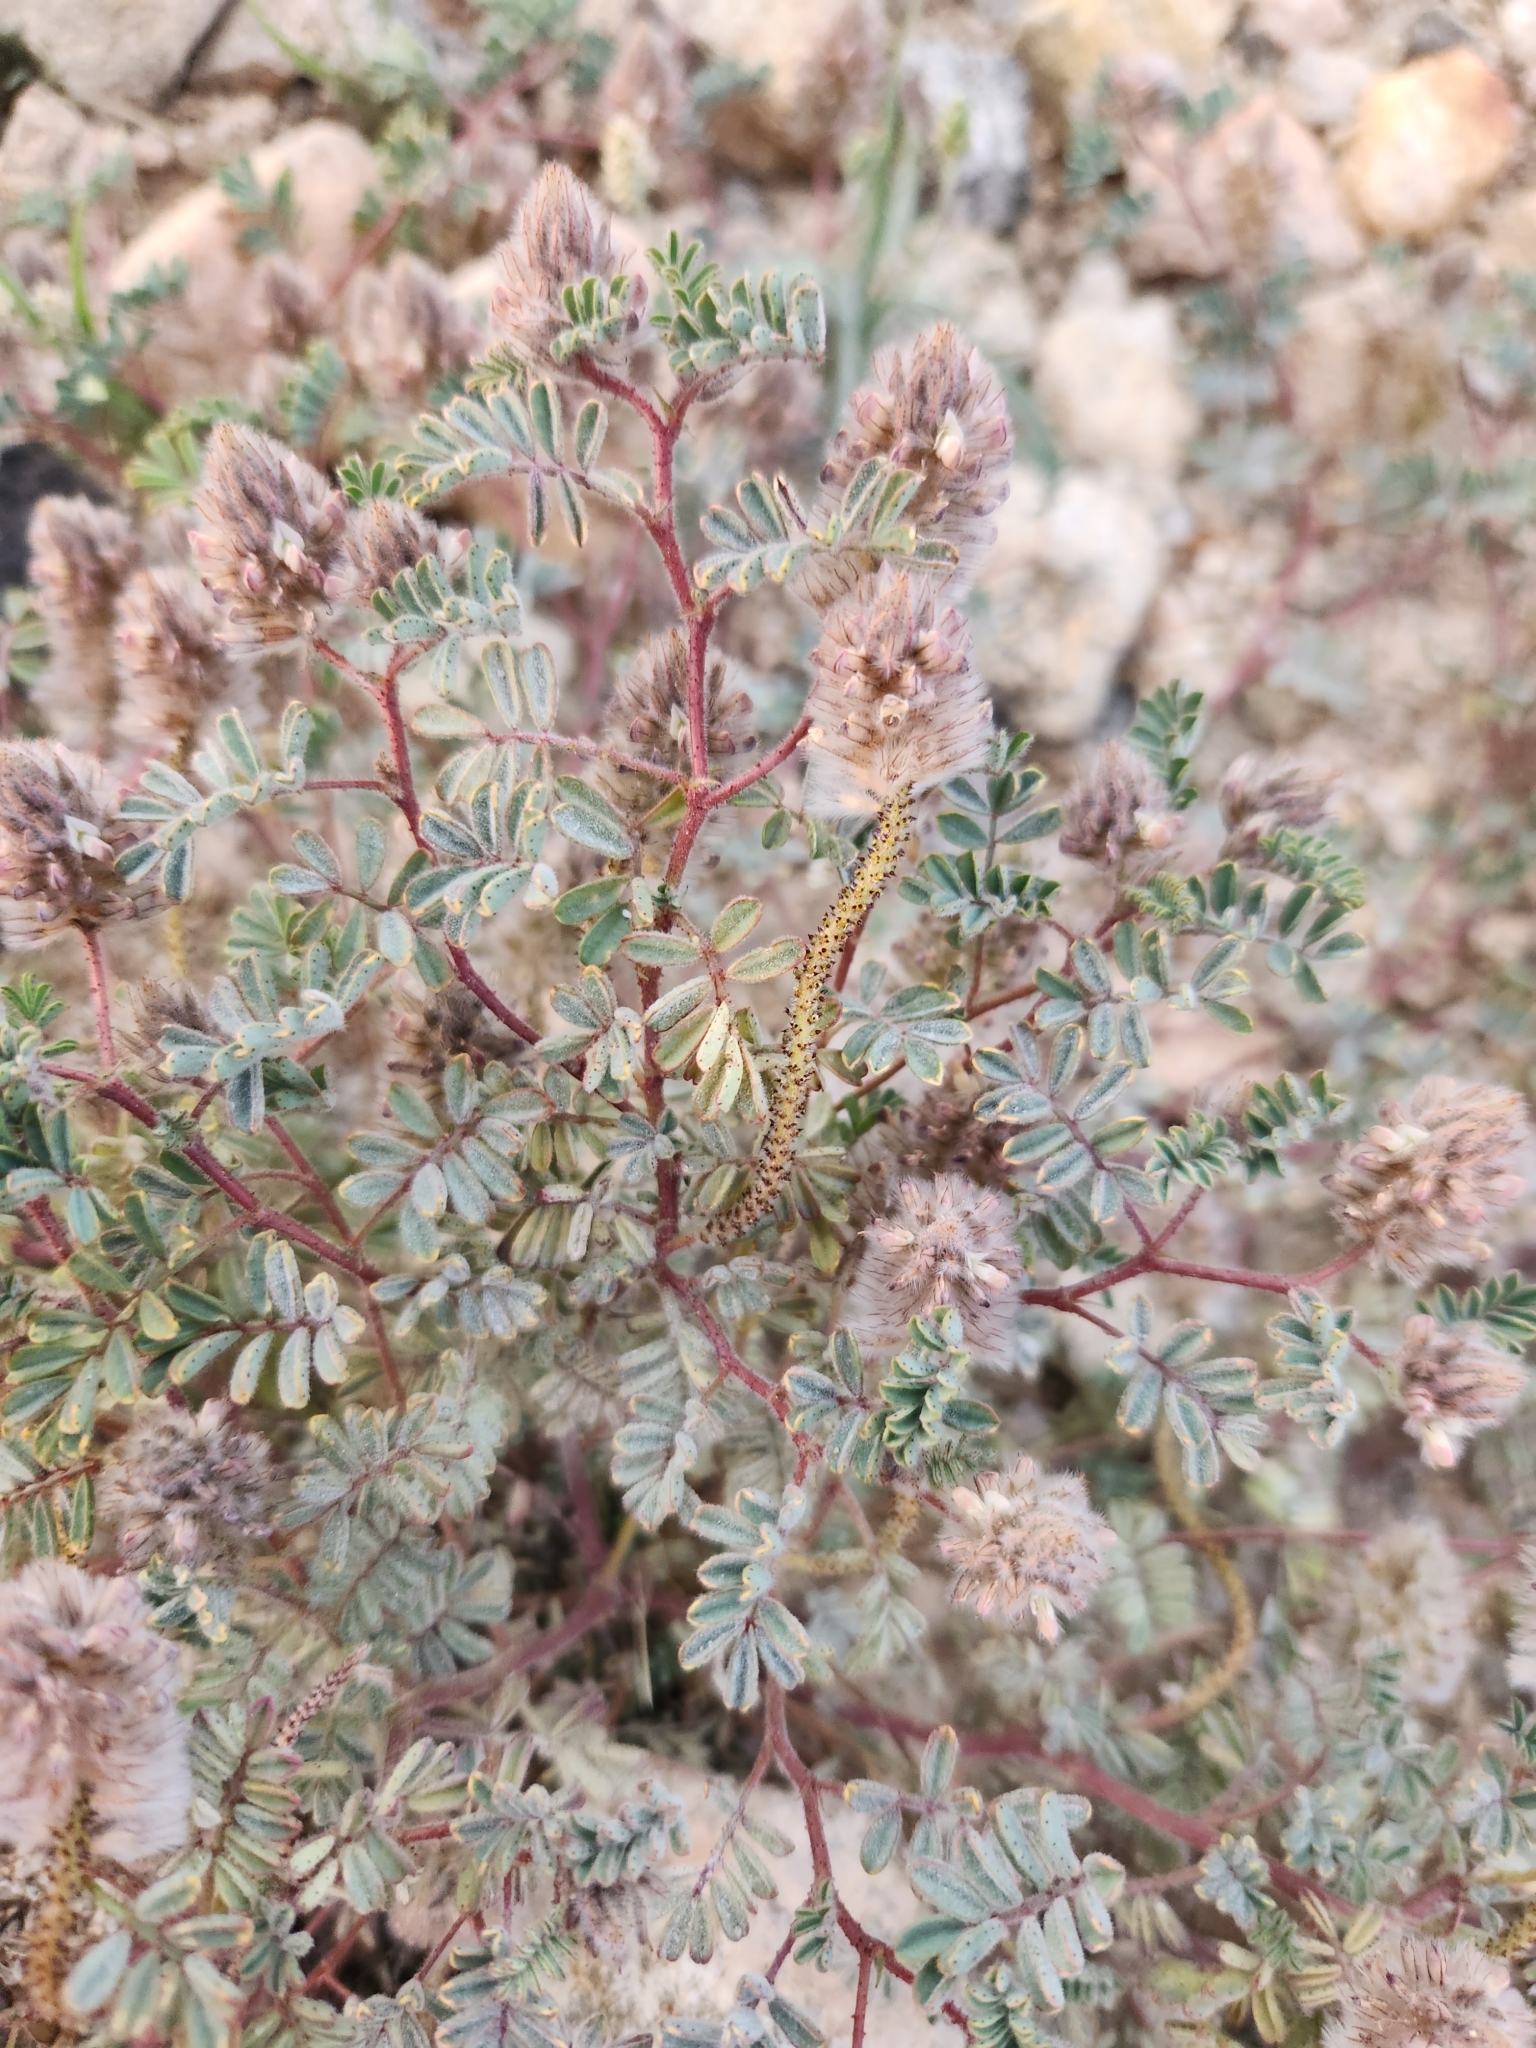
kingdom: Plantae
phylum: Tracheophyta
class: Magnoliopsida
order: Fabales
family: Fabaceae
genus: Dalea
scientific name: Dalea mollis
